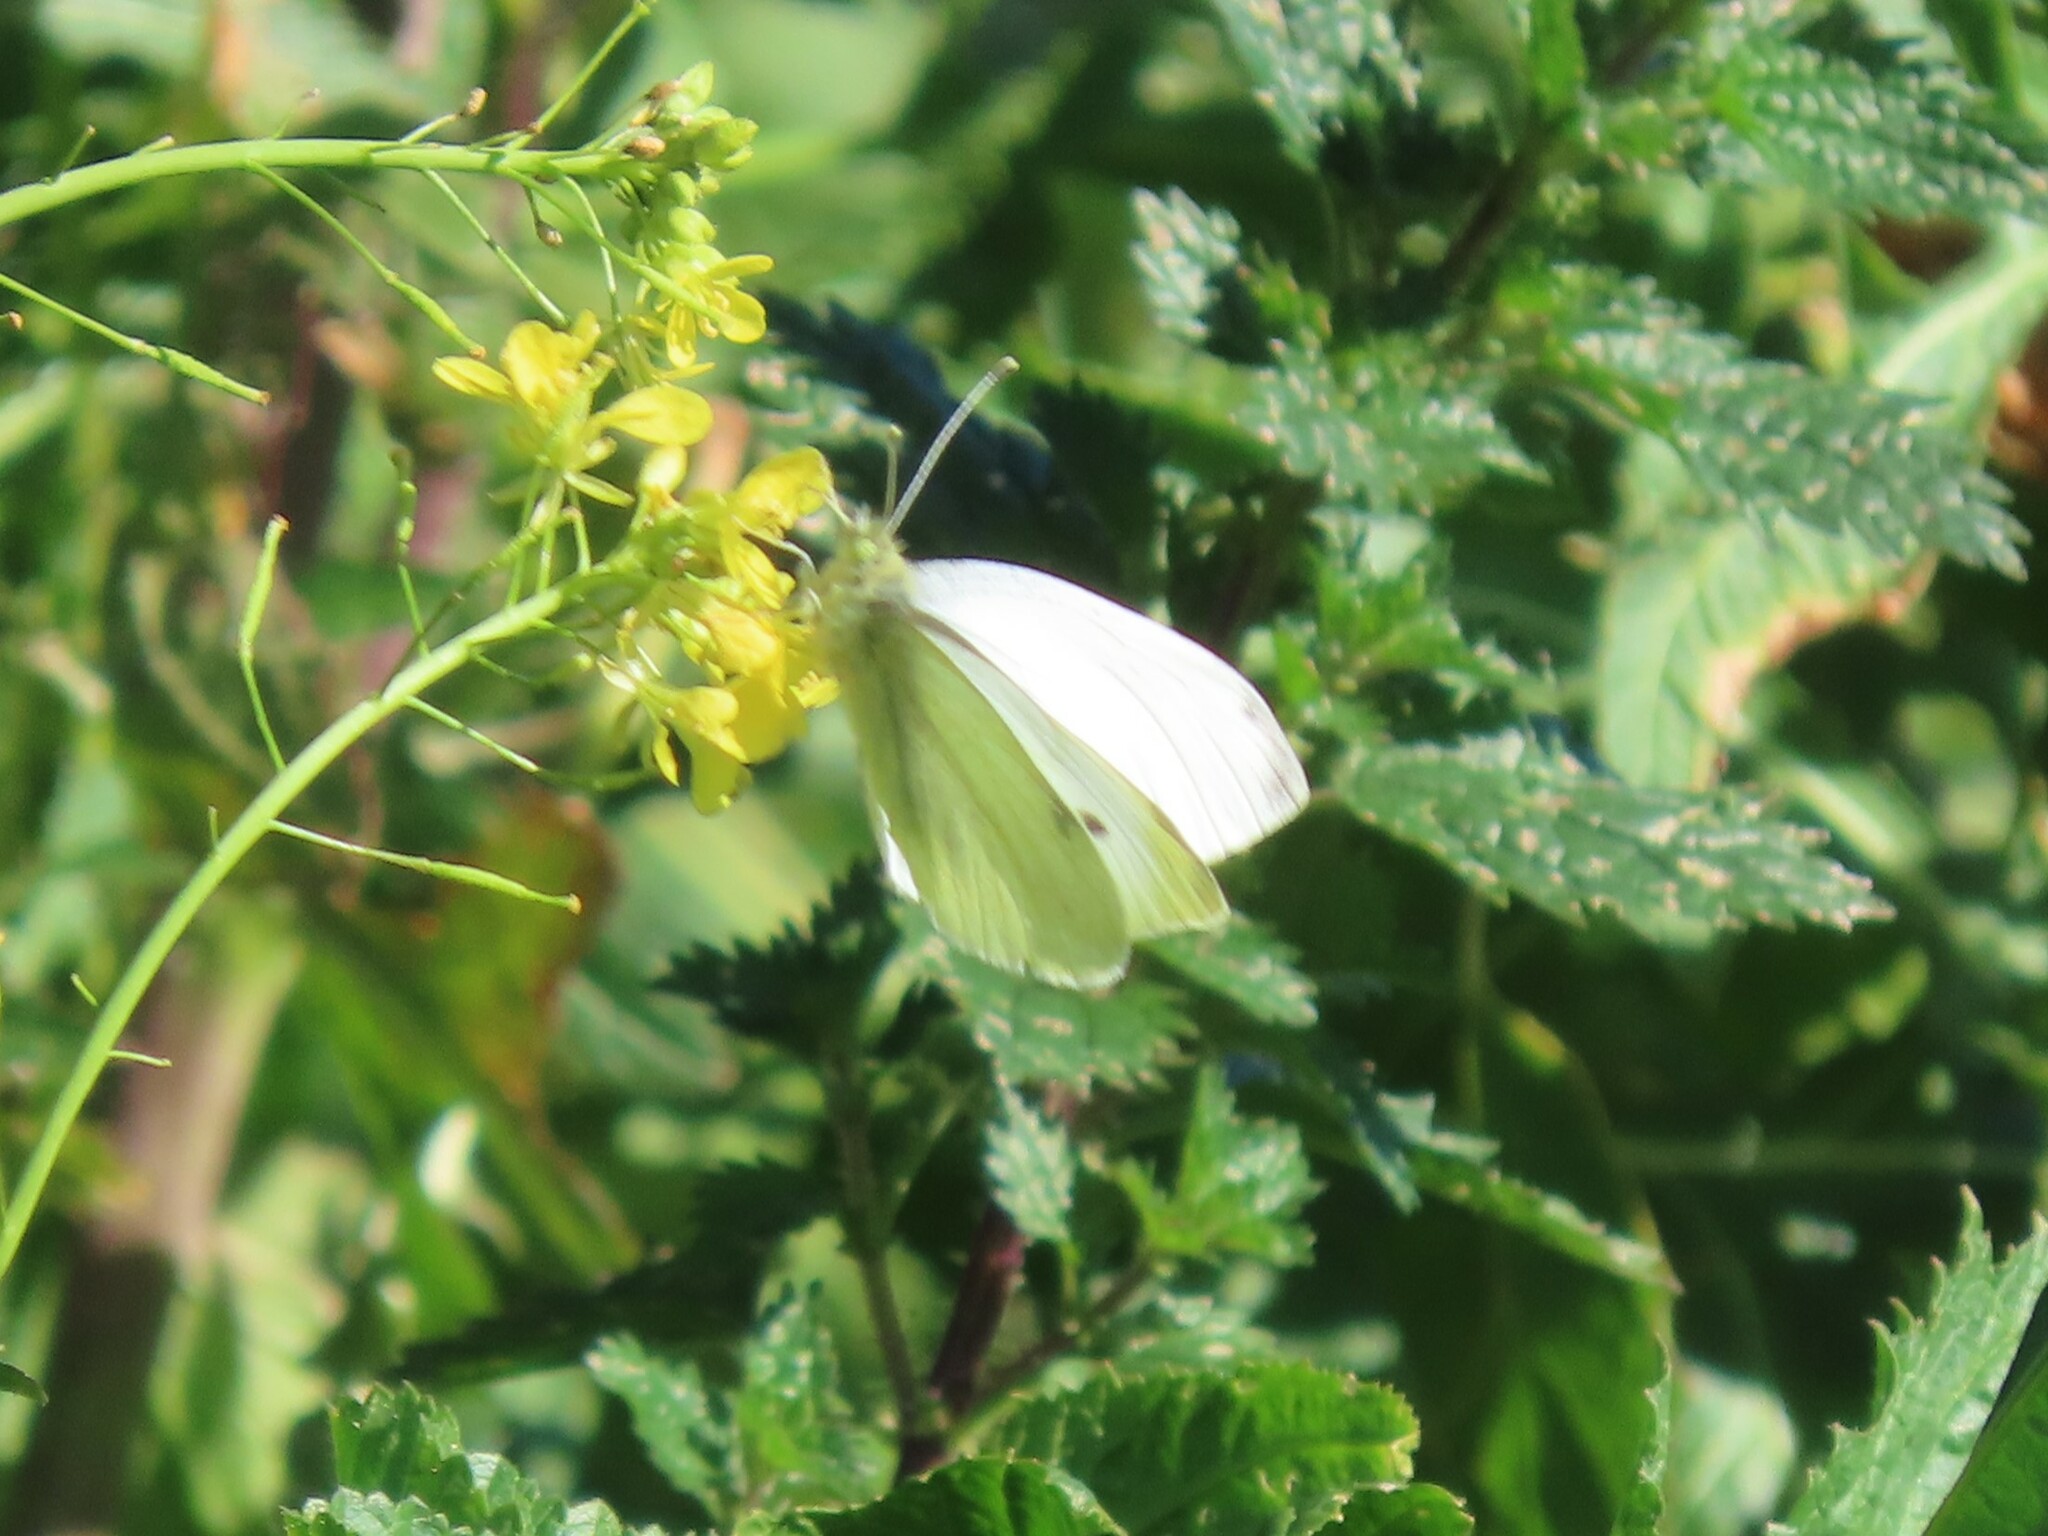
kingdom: Animalia
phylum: Arthropoda
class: Insecta
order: Lepidoptera
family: Pieridae
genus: Pieris
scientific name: Pieris rapae
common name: Small white
